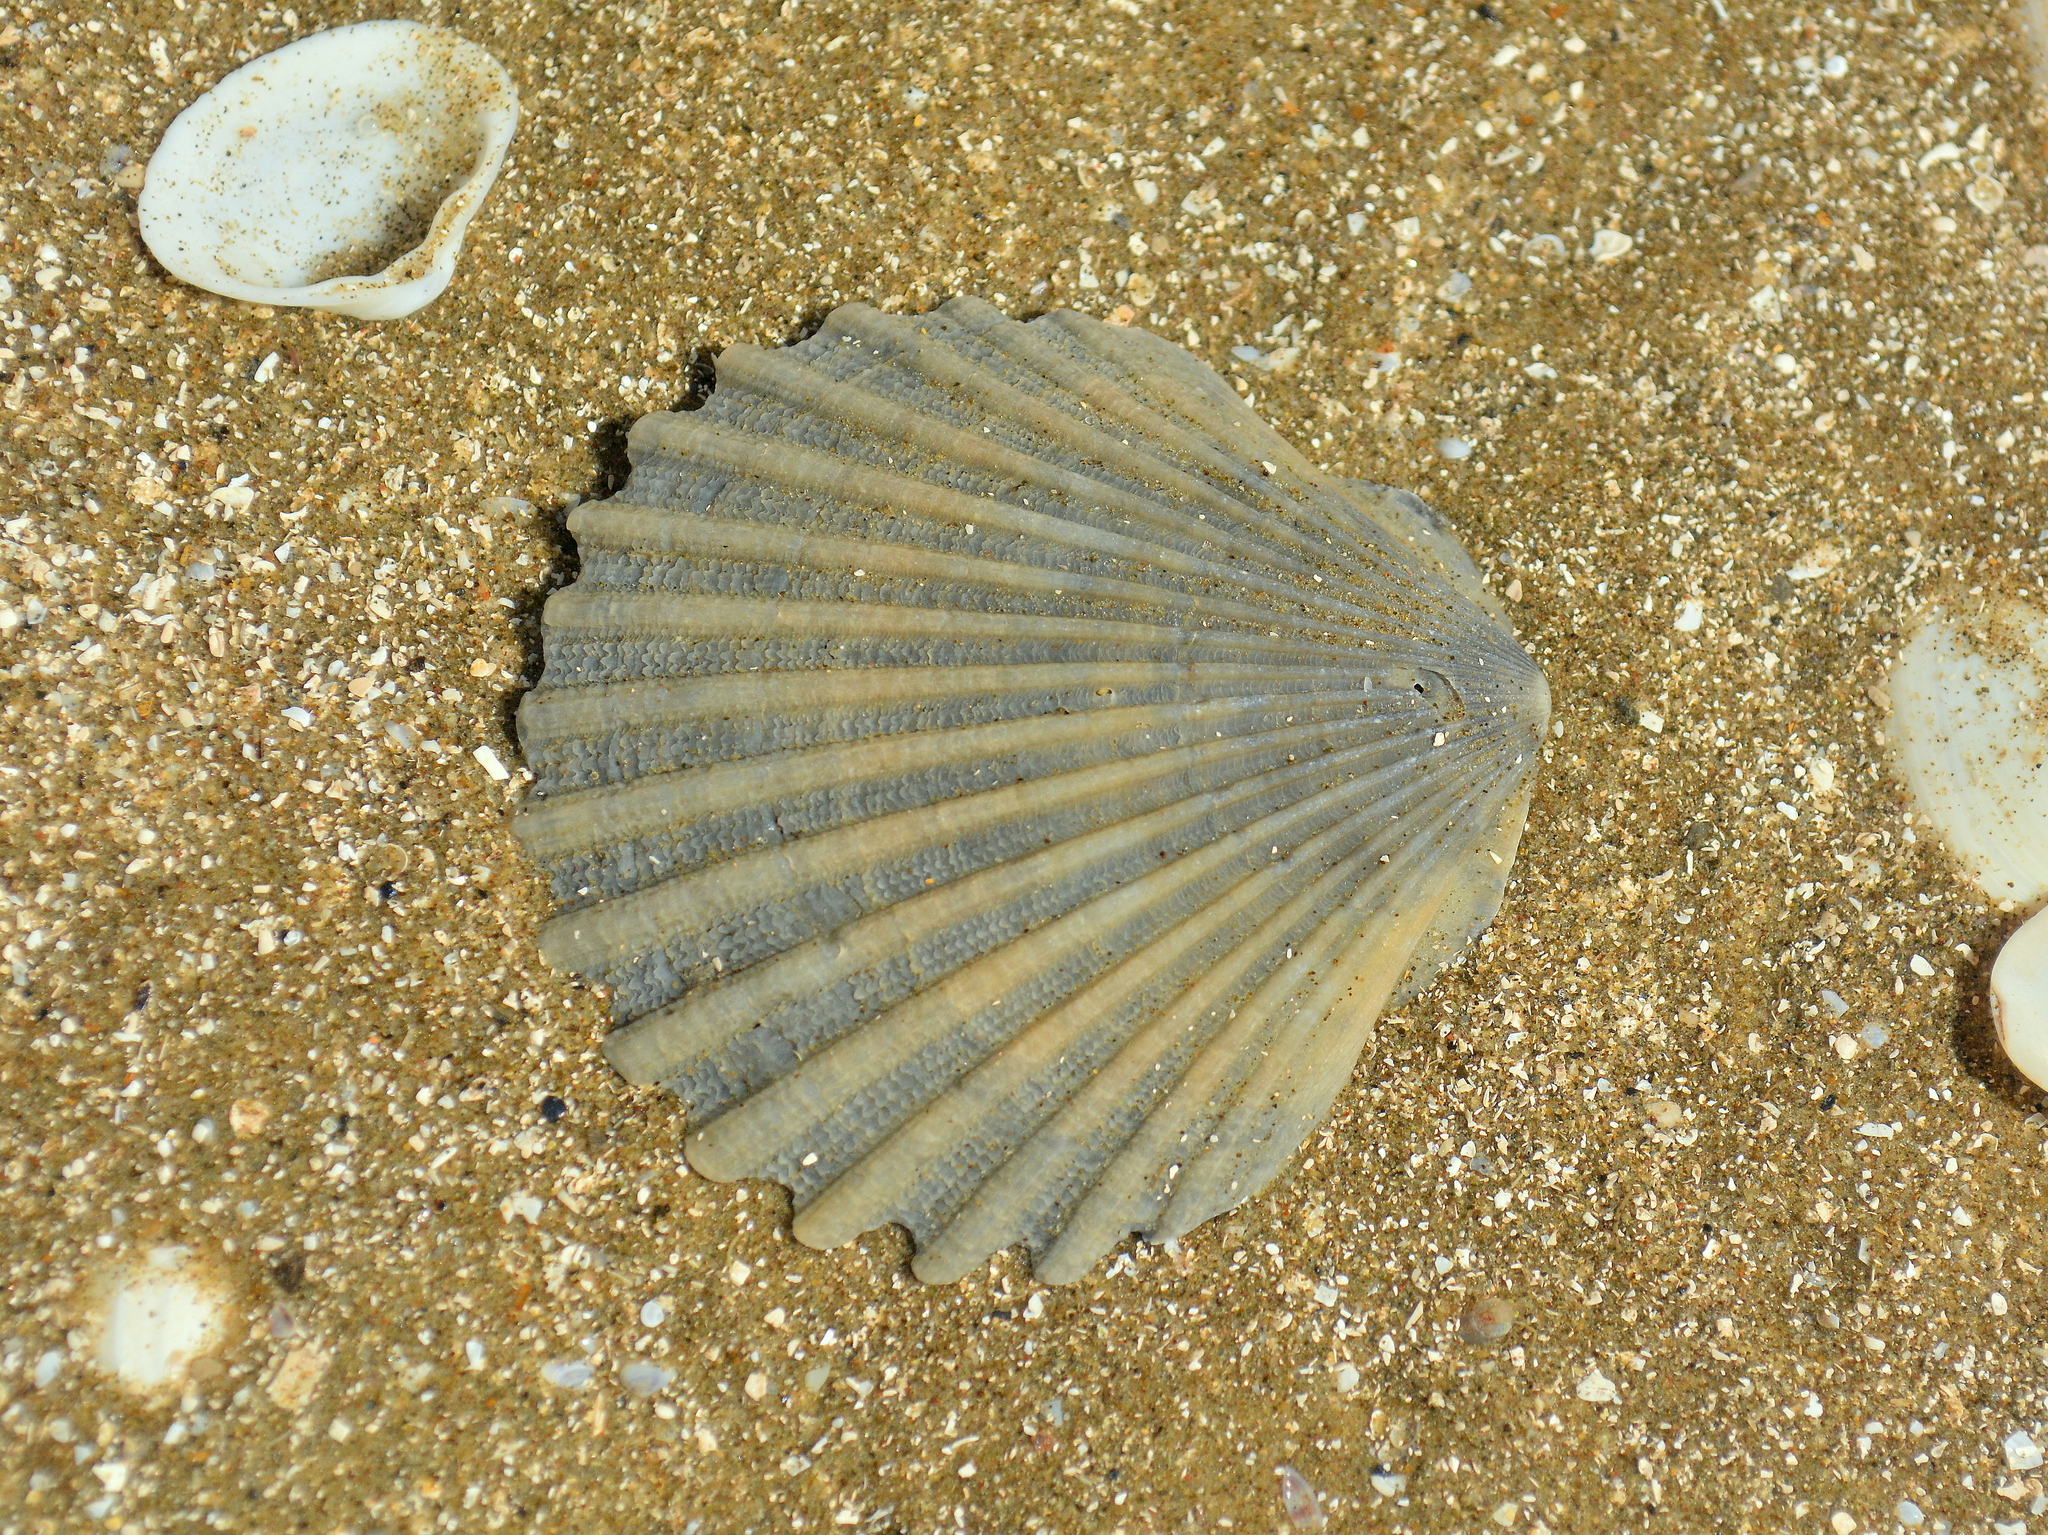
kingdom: Animalia
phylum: Mollusca
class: Bivalvia
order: Pectinida
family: Pectinidae
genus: Aequipecten
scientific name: Aequipecten tehuelchus
